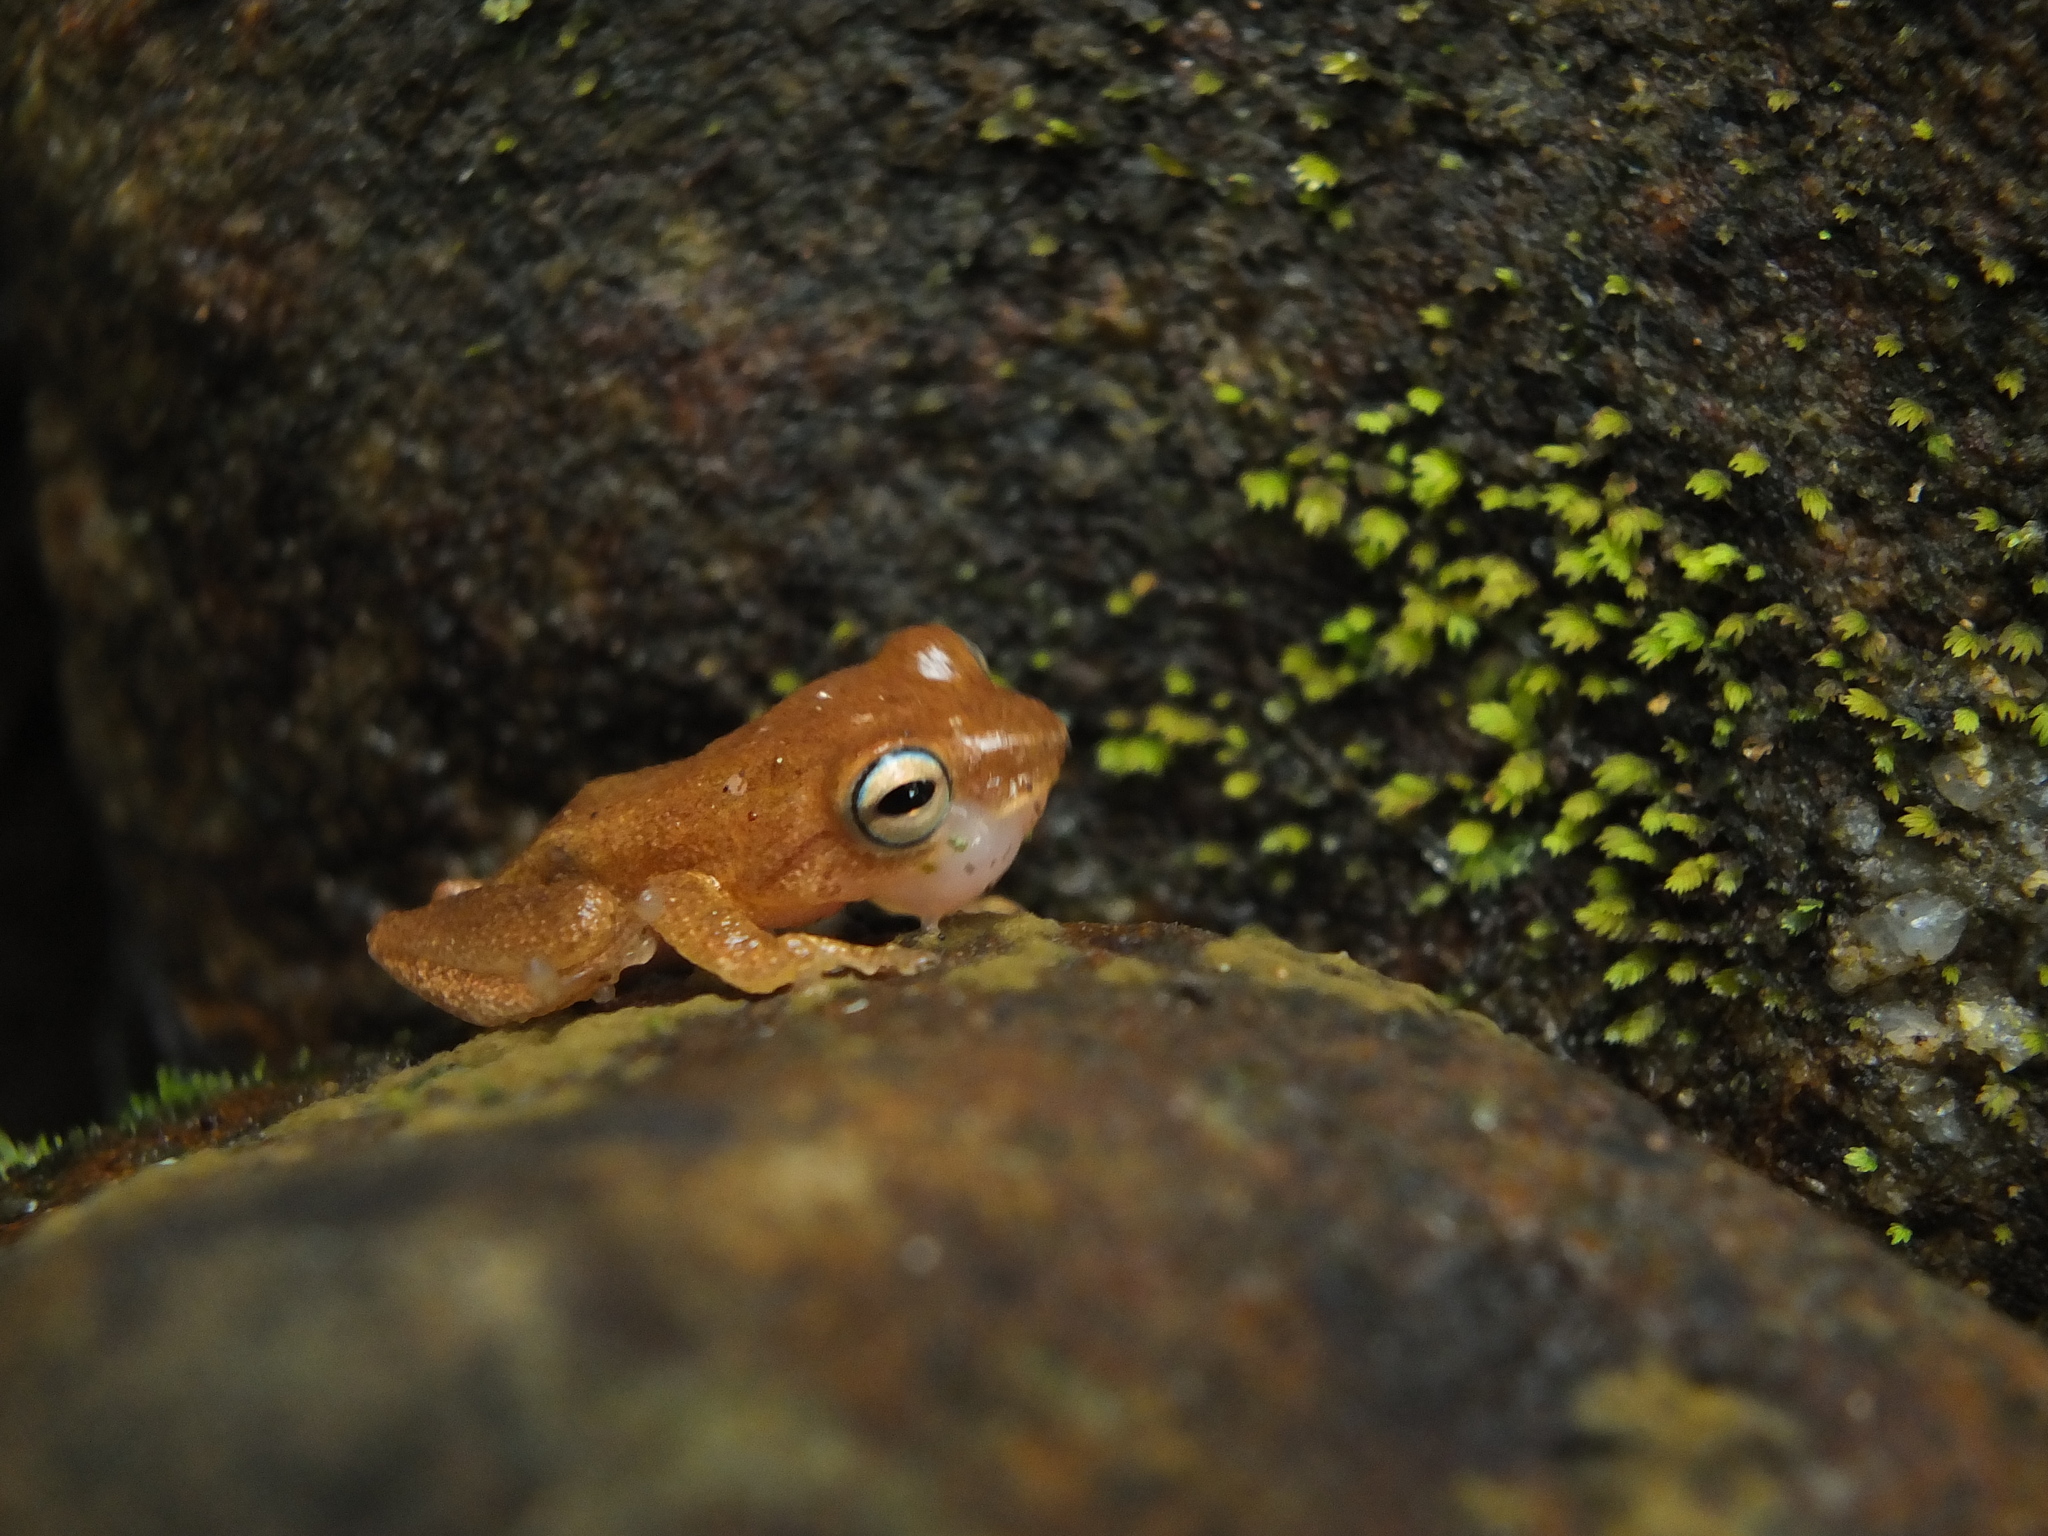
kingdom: Animalia
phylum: Chordata
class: Amphibia
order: Anura
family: Rhacophoridae
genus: Raorchestes
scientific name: Raorchestes luteolus
